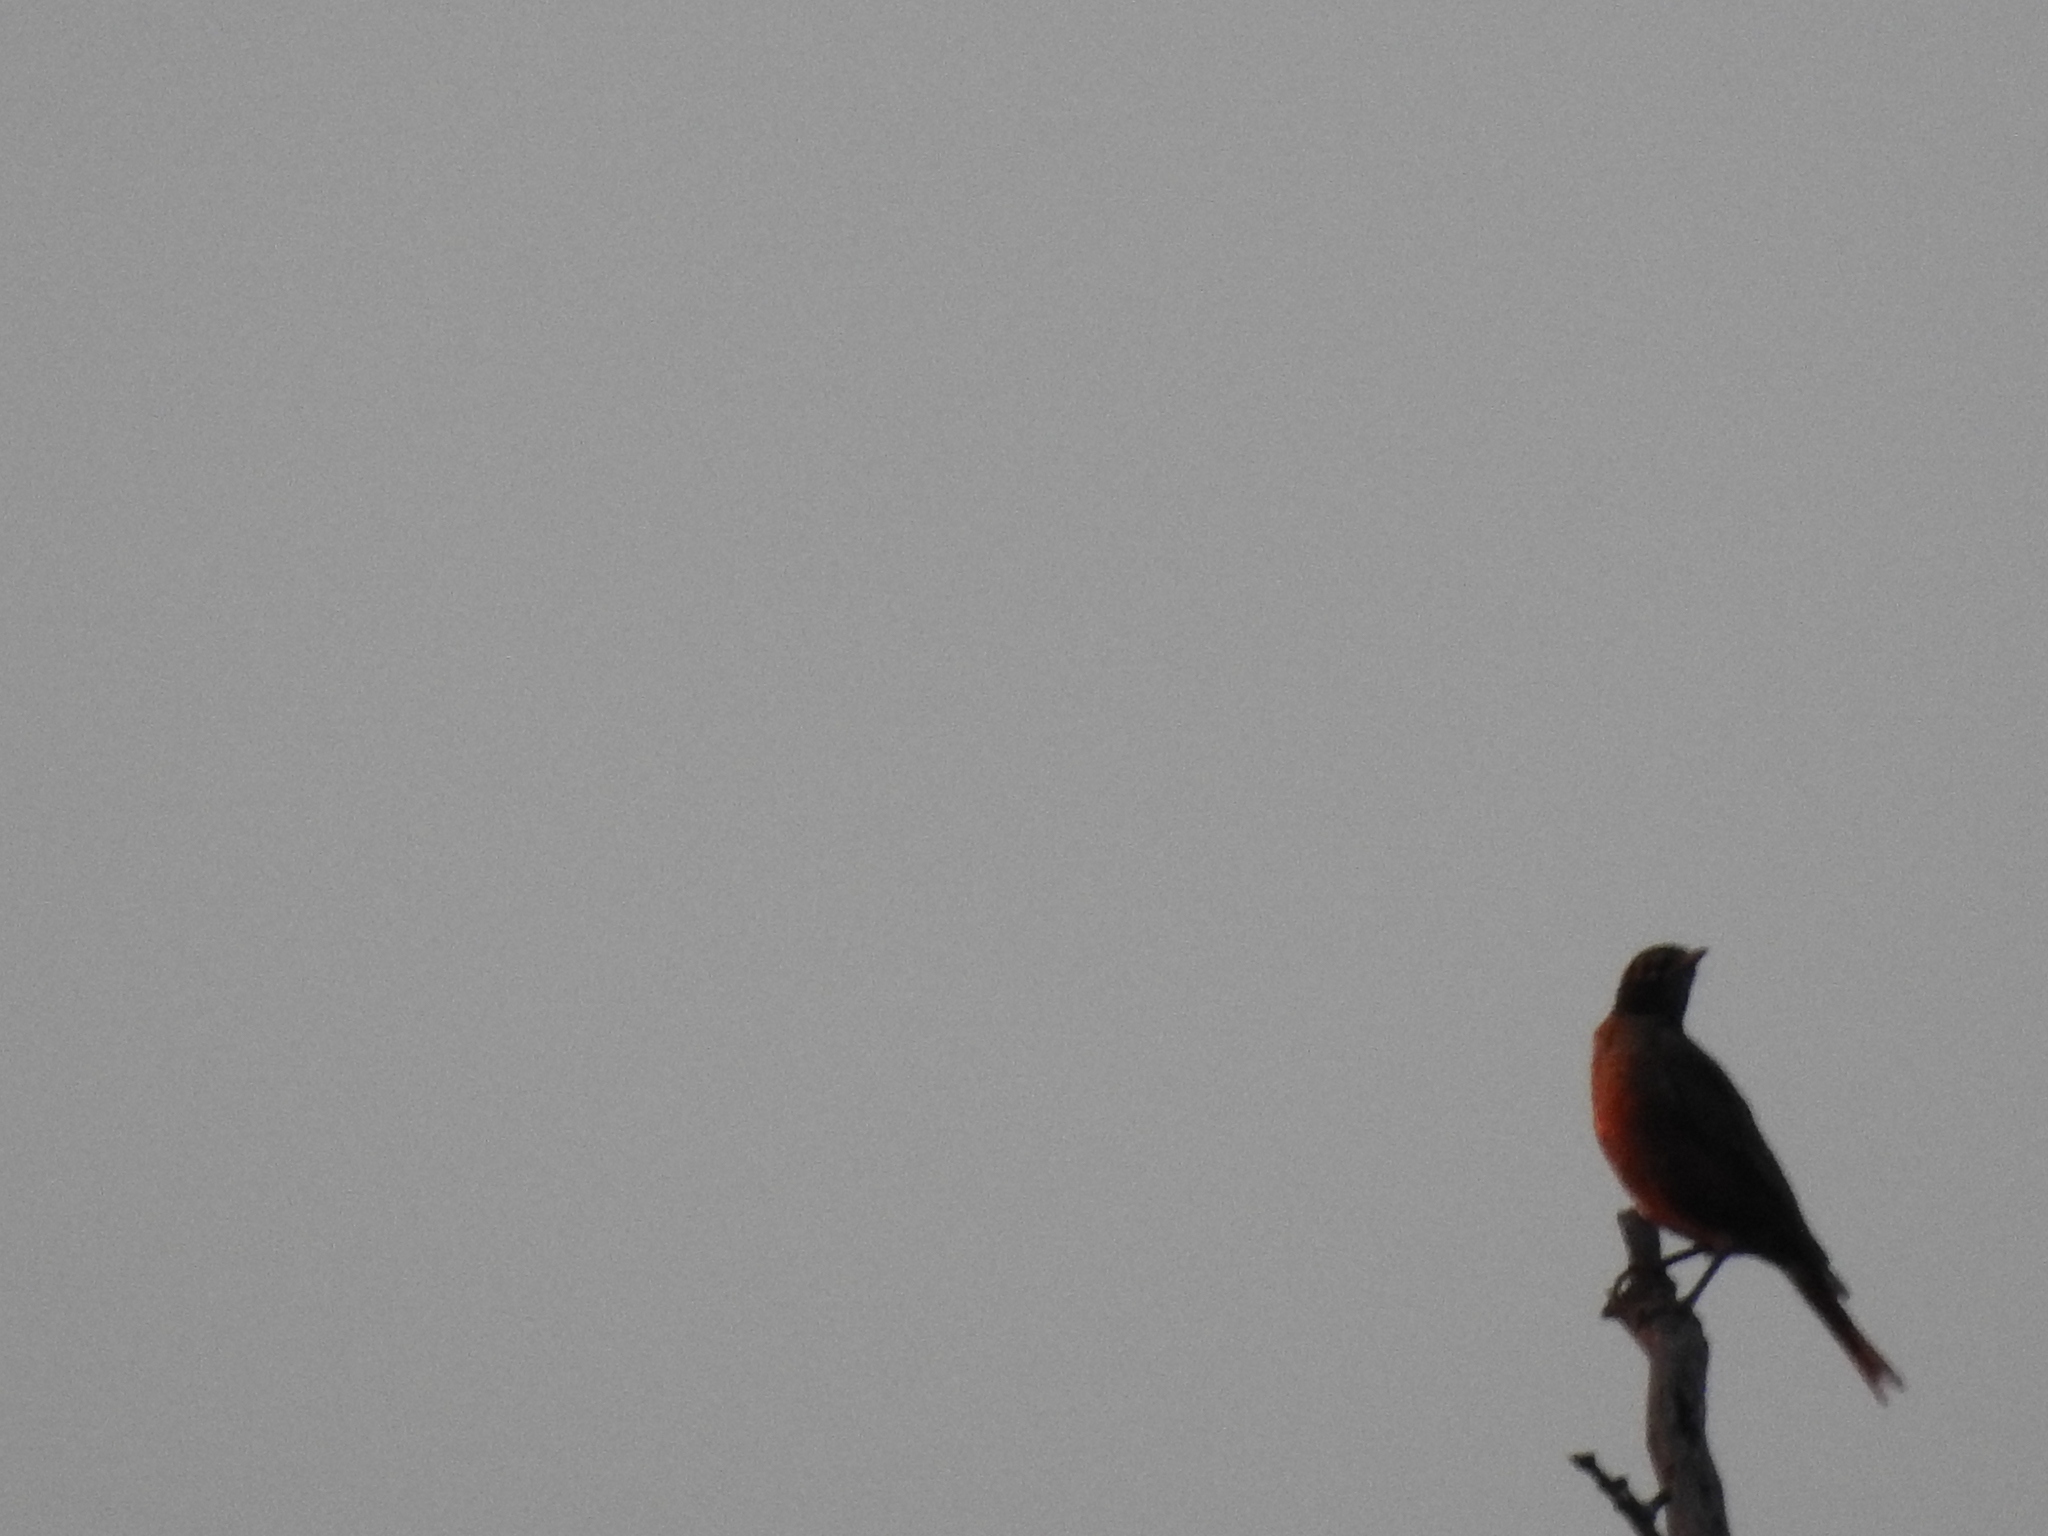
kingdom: Animalia
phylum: Chordata
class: Aves
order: Passeriformes
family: Turdidae
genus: Turdus
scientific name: Turdus migratorius
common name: American robin
